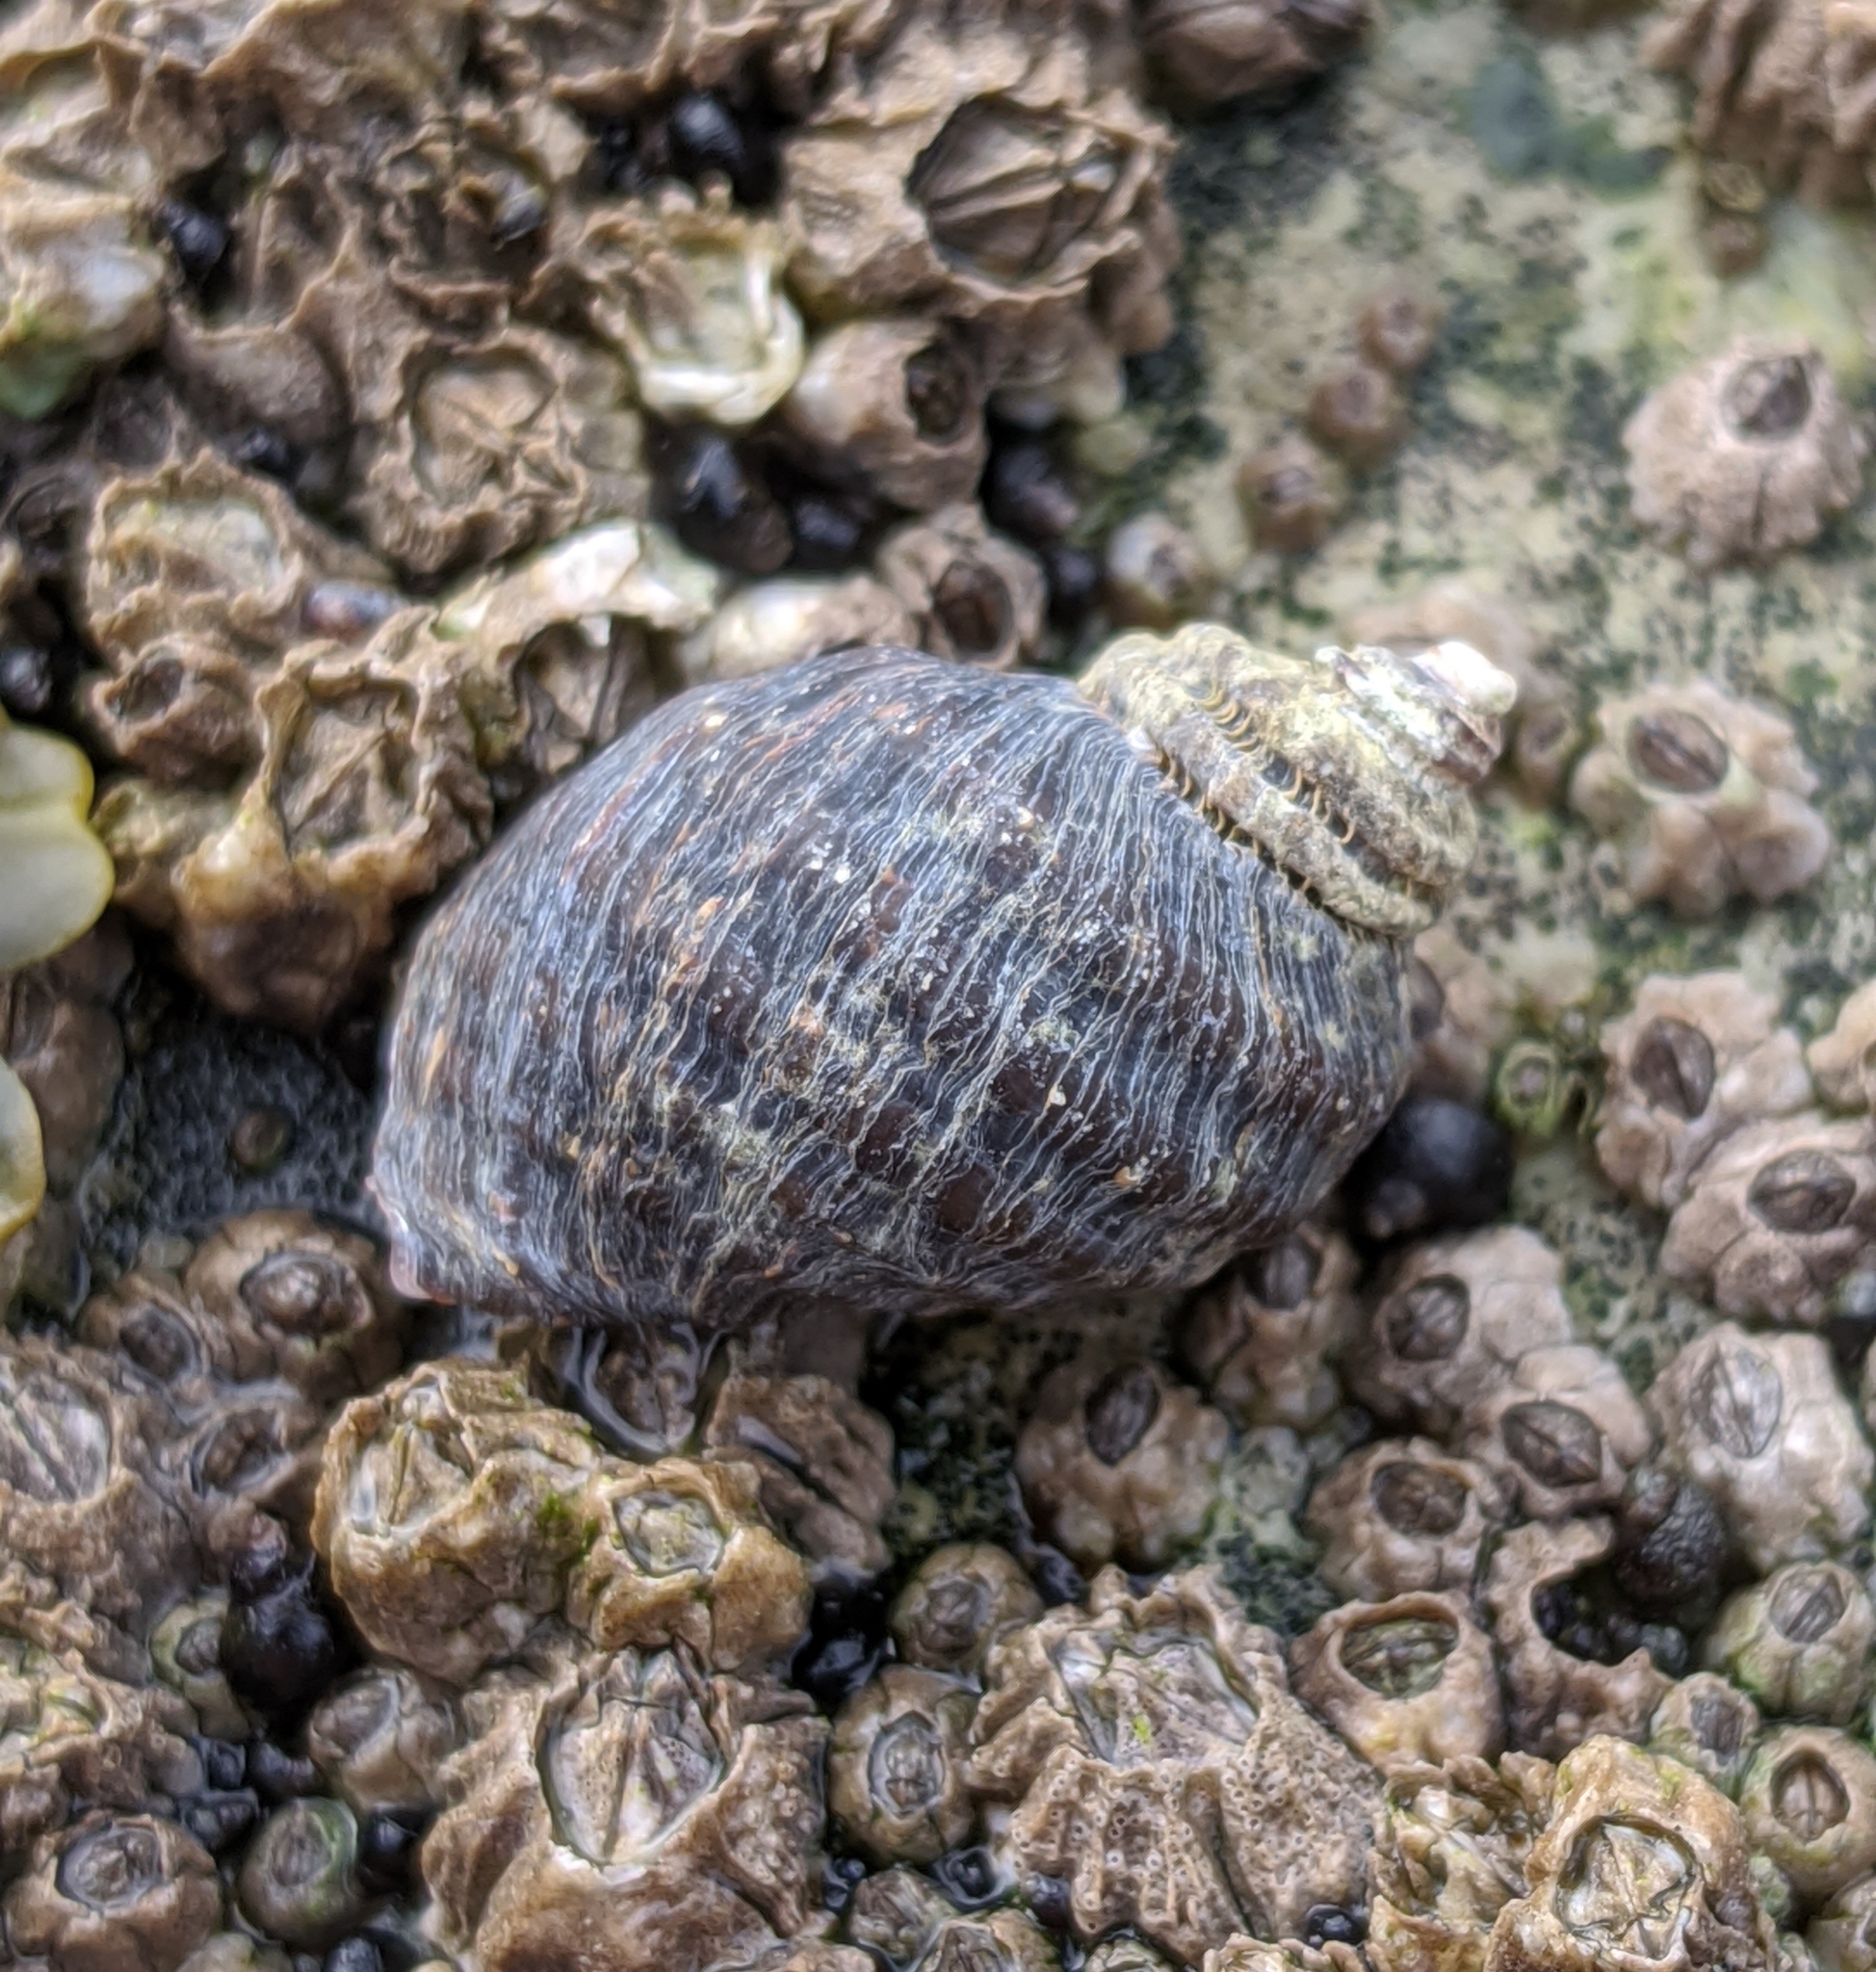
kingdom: Animalia
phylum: Mollusca
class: Gastropoda
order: Neogastropoda
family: Muricidae
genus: Nucella
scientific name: Nucella ostrina
